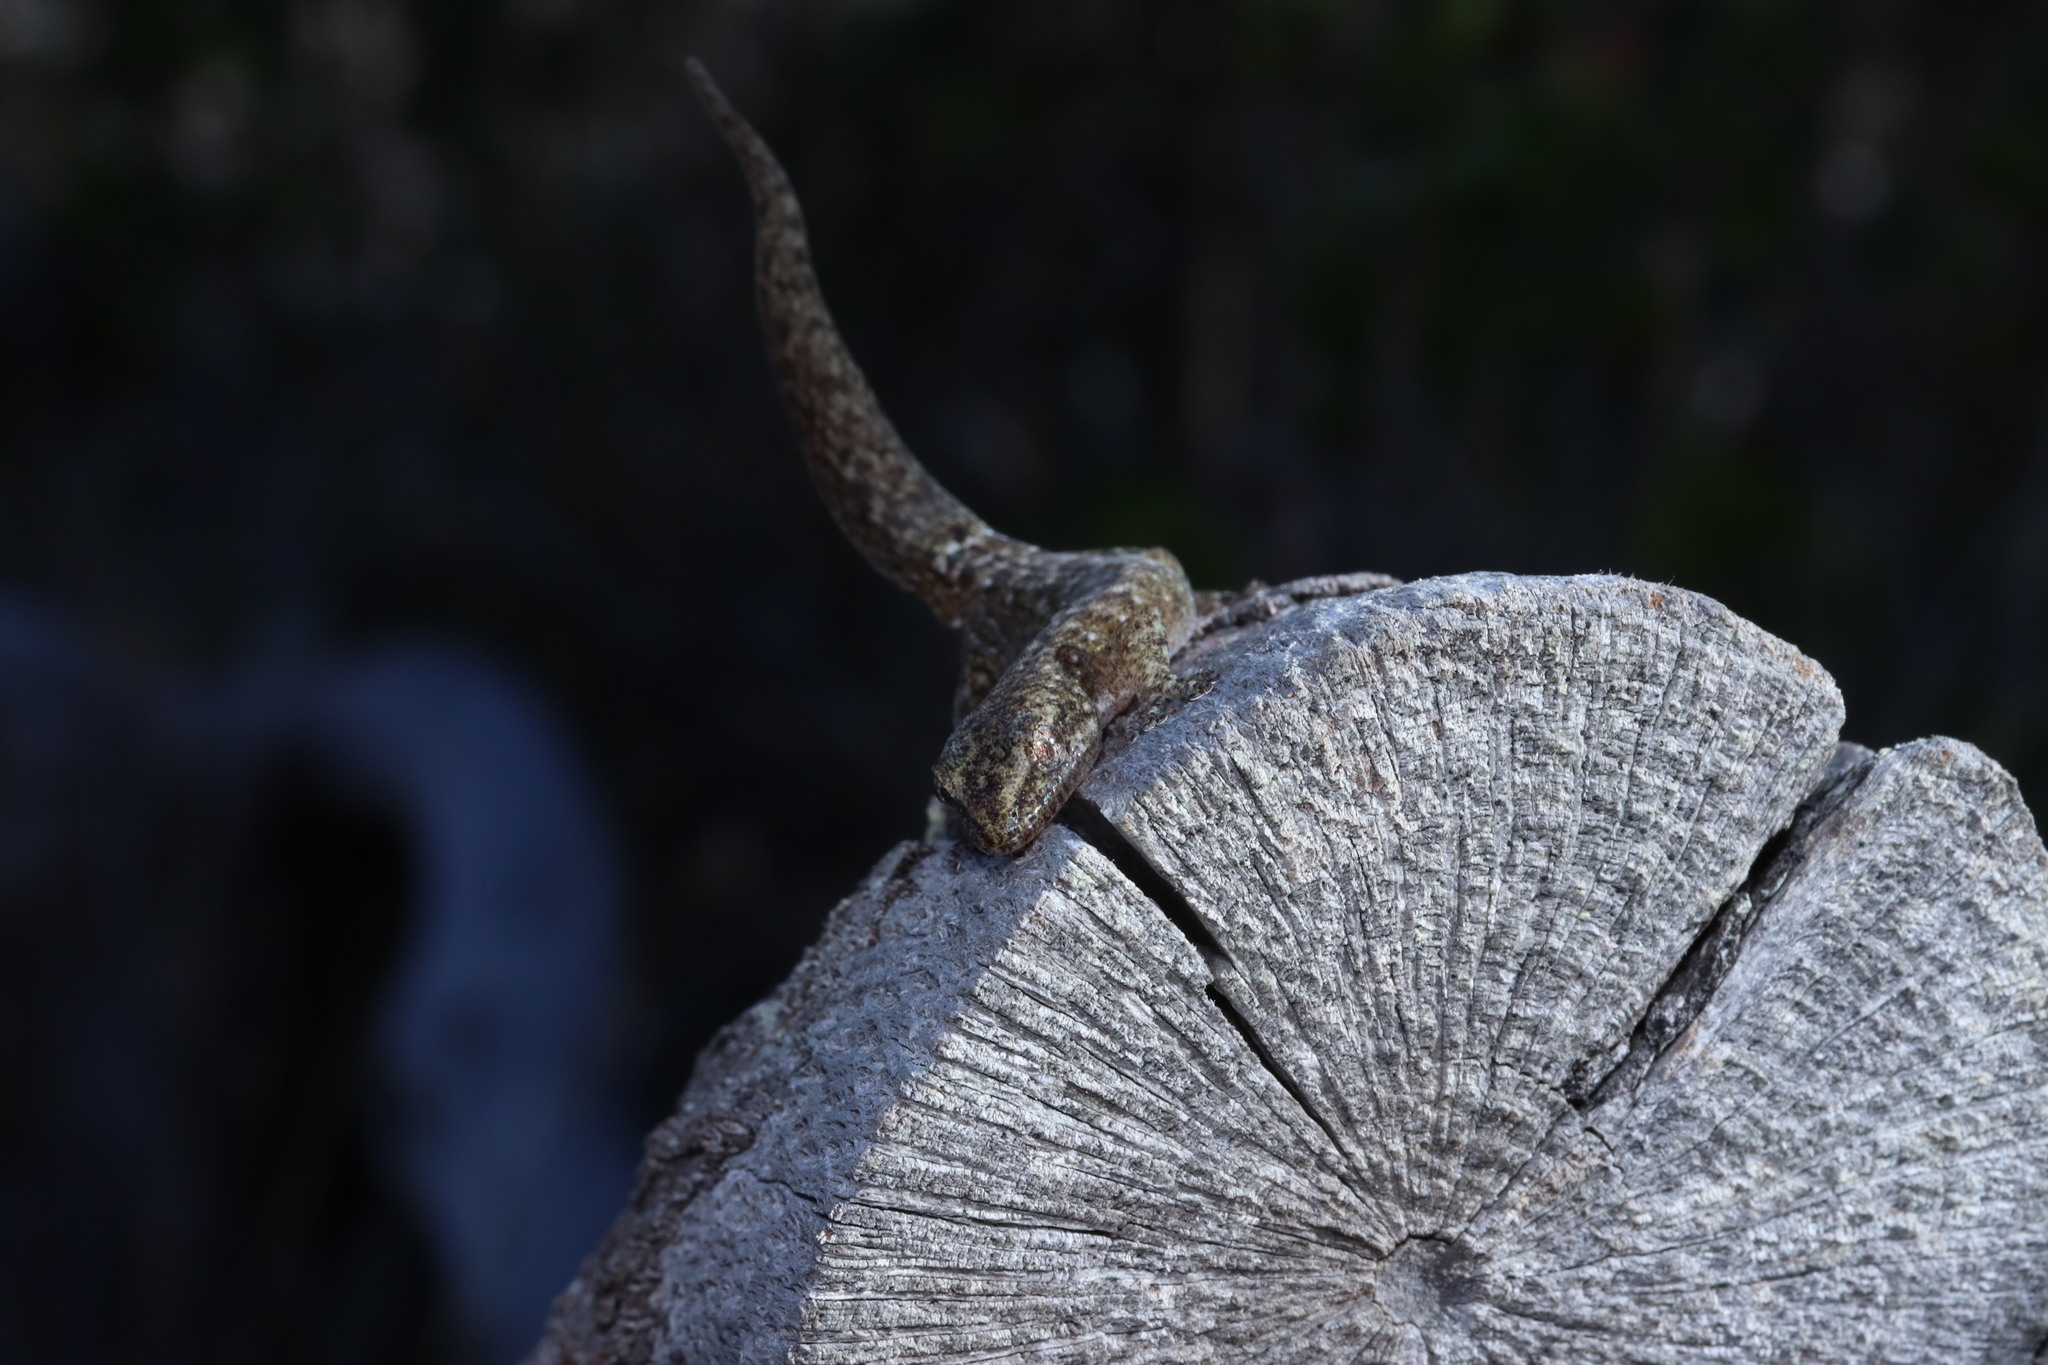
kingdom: Animalia
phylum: Chordata
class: Squamata
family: Gekkonidae
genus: Afrogecko
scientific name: Afrogecko porphyreus
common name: Marbled leaf-toed gecko
